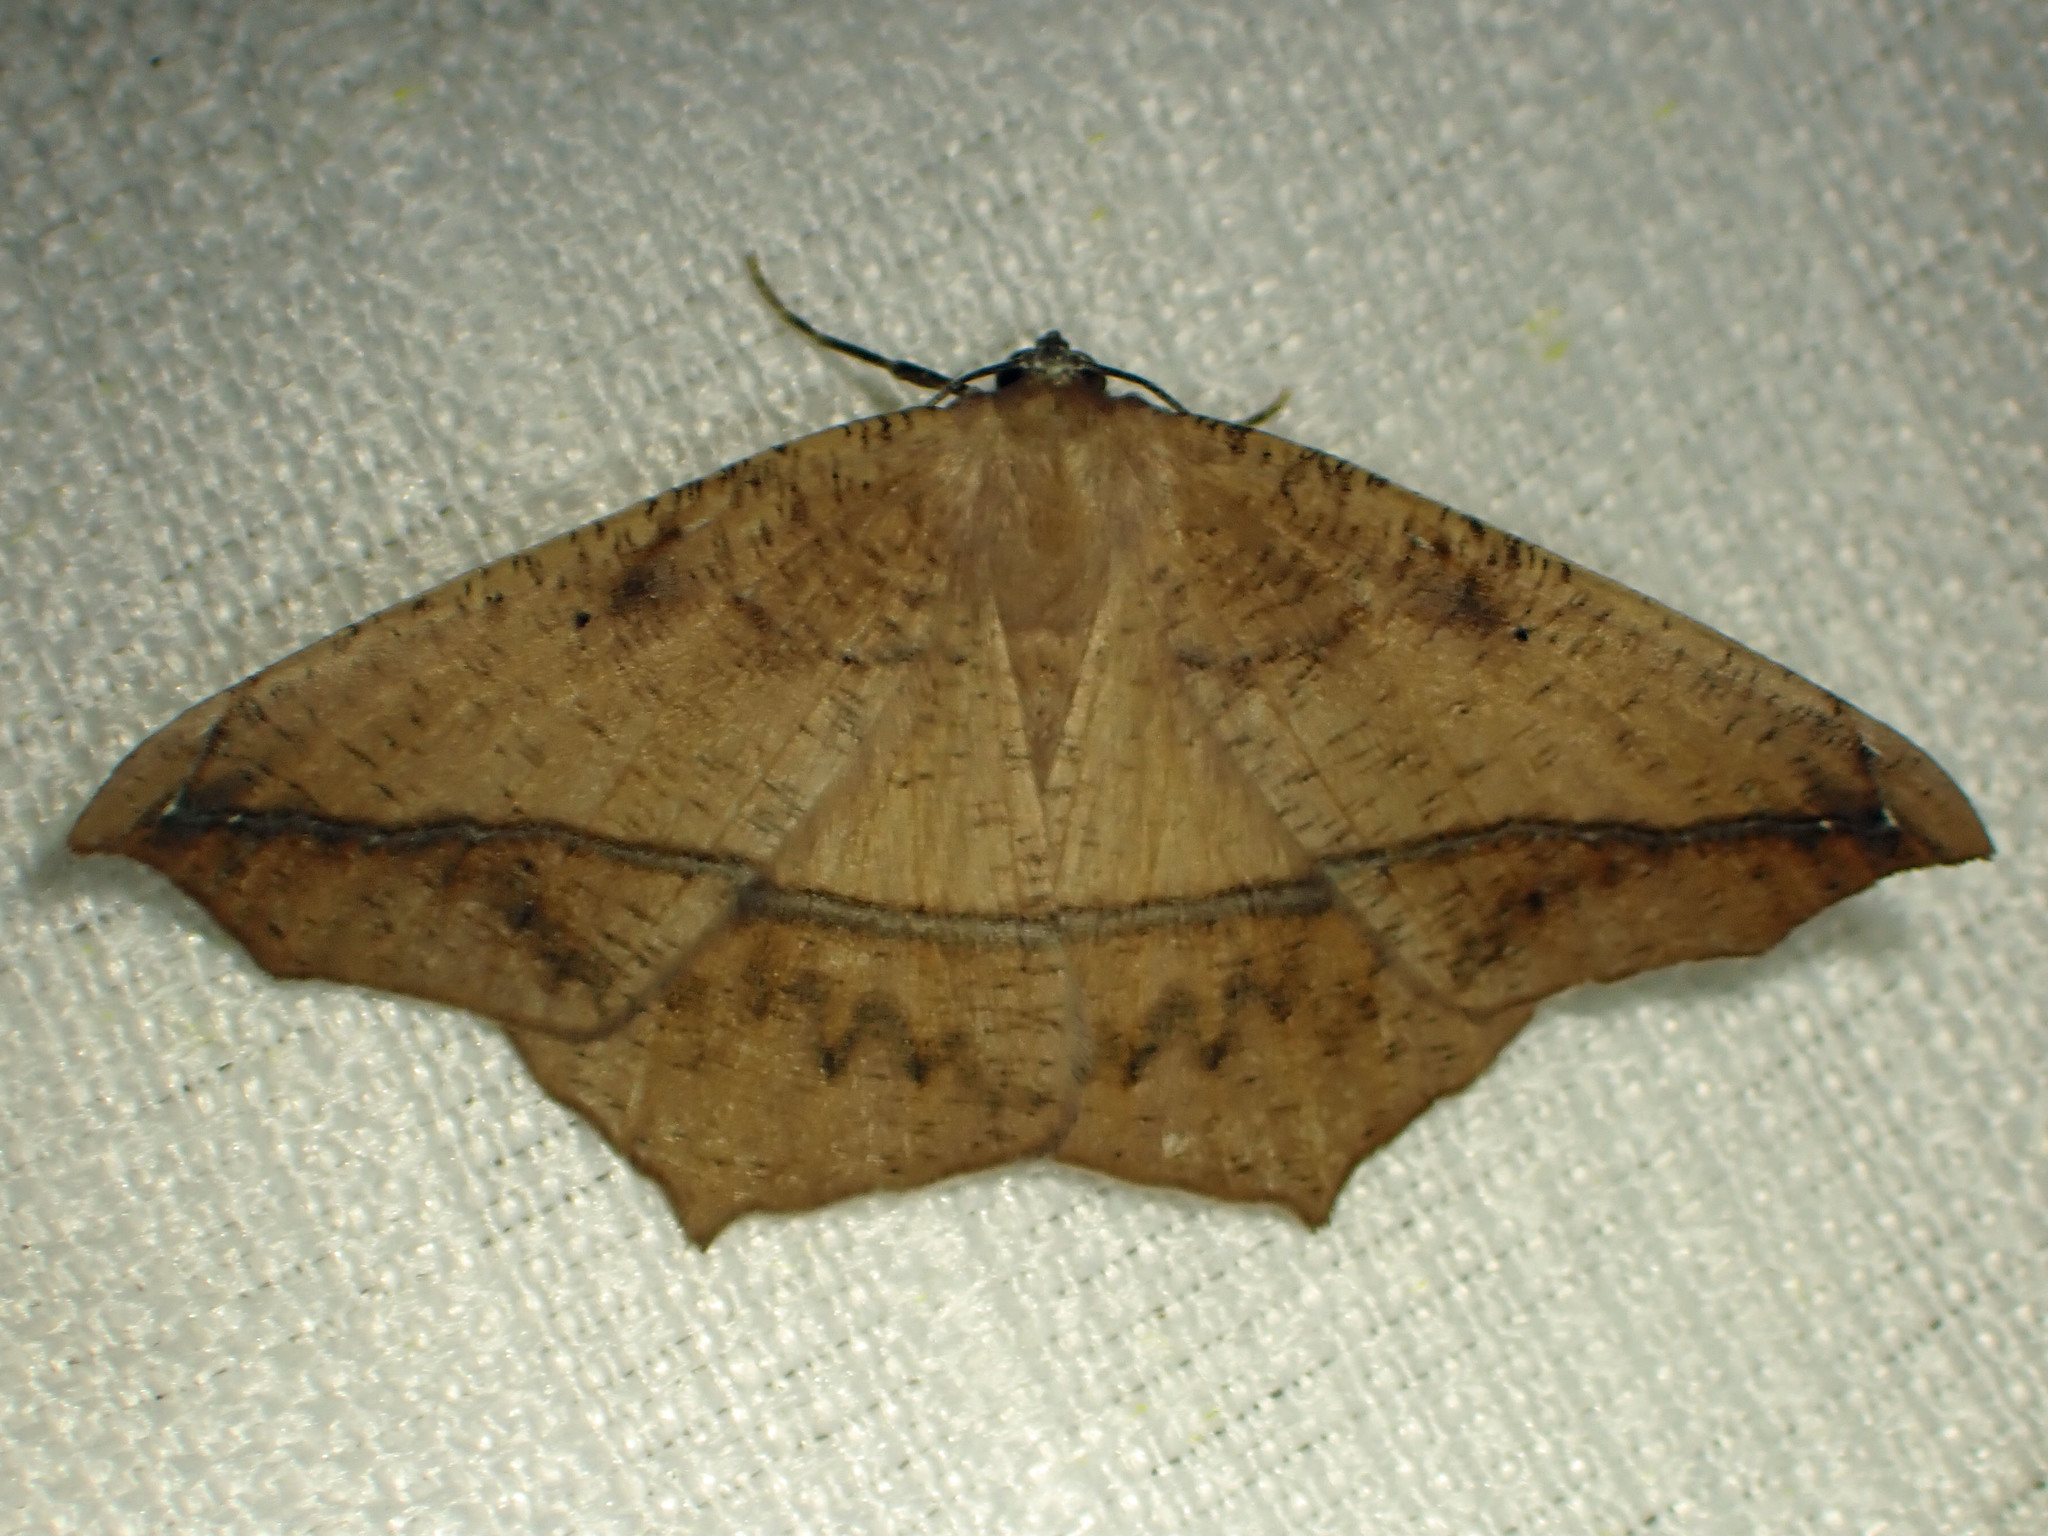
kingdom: Animalia
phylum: Arthropoda
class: Insecta
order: Lepidoptera
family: Geometridae
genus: Prochoerodes
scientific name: Prochoerodes lineola
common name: Large maple spanworm
